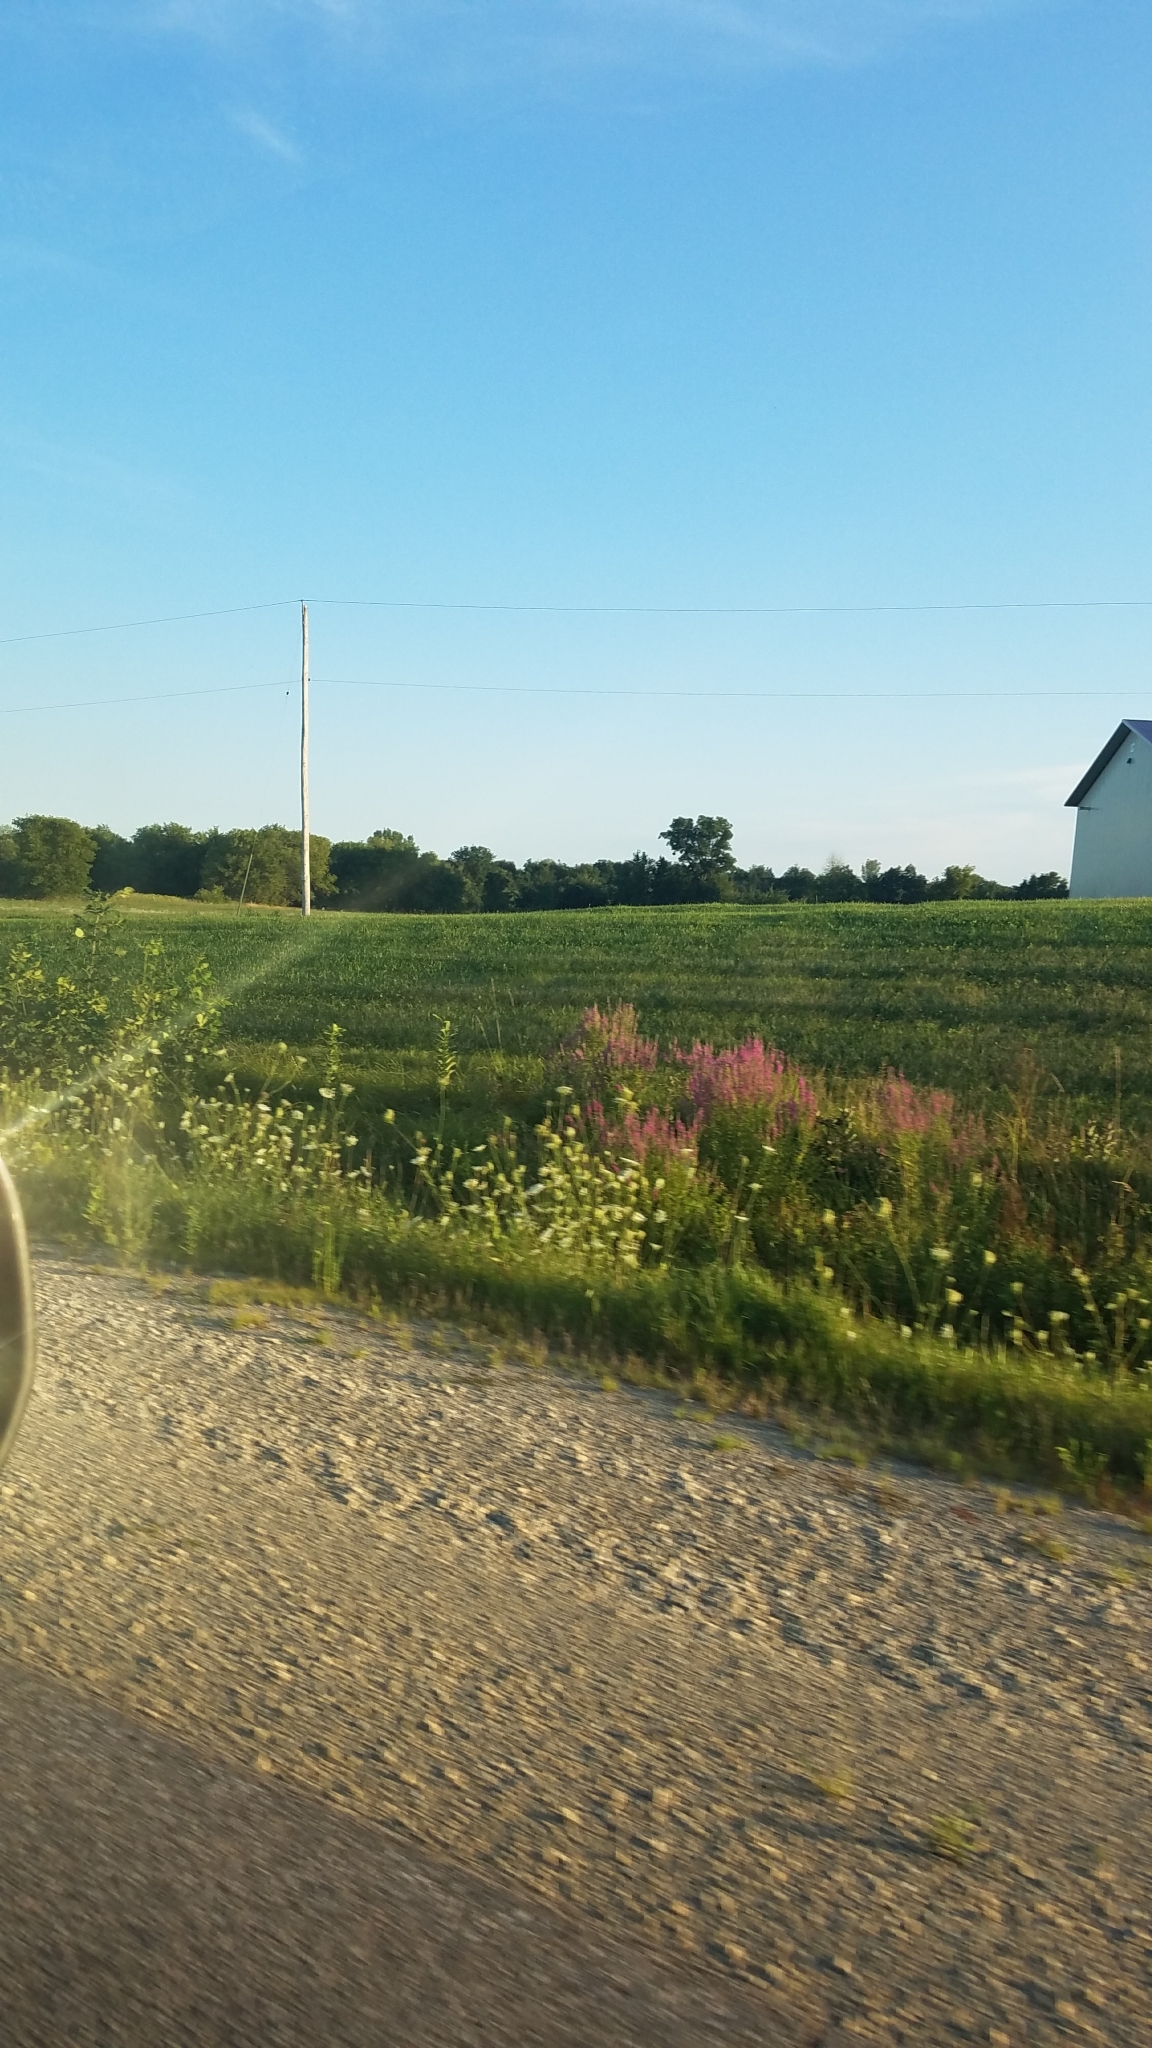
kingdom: Plantae
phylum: Tracheophyta
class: Magnoliopsida
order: Myrtales
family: Lythraceae
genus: Lythrum
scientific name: Lythrum salicaria
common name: Purple loosestrife
